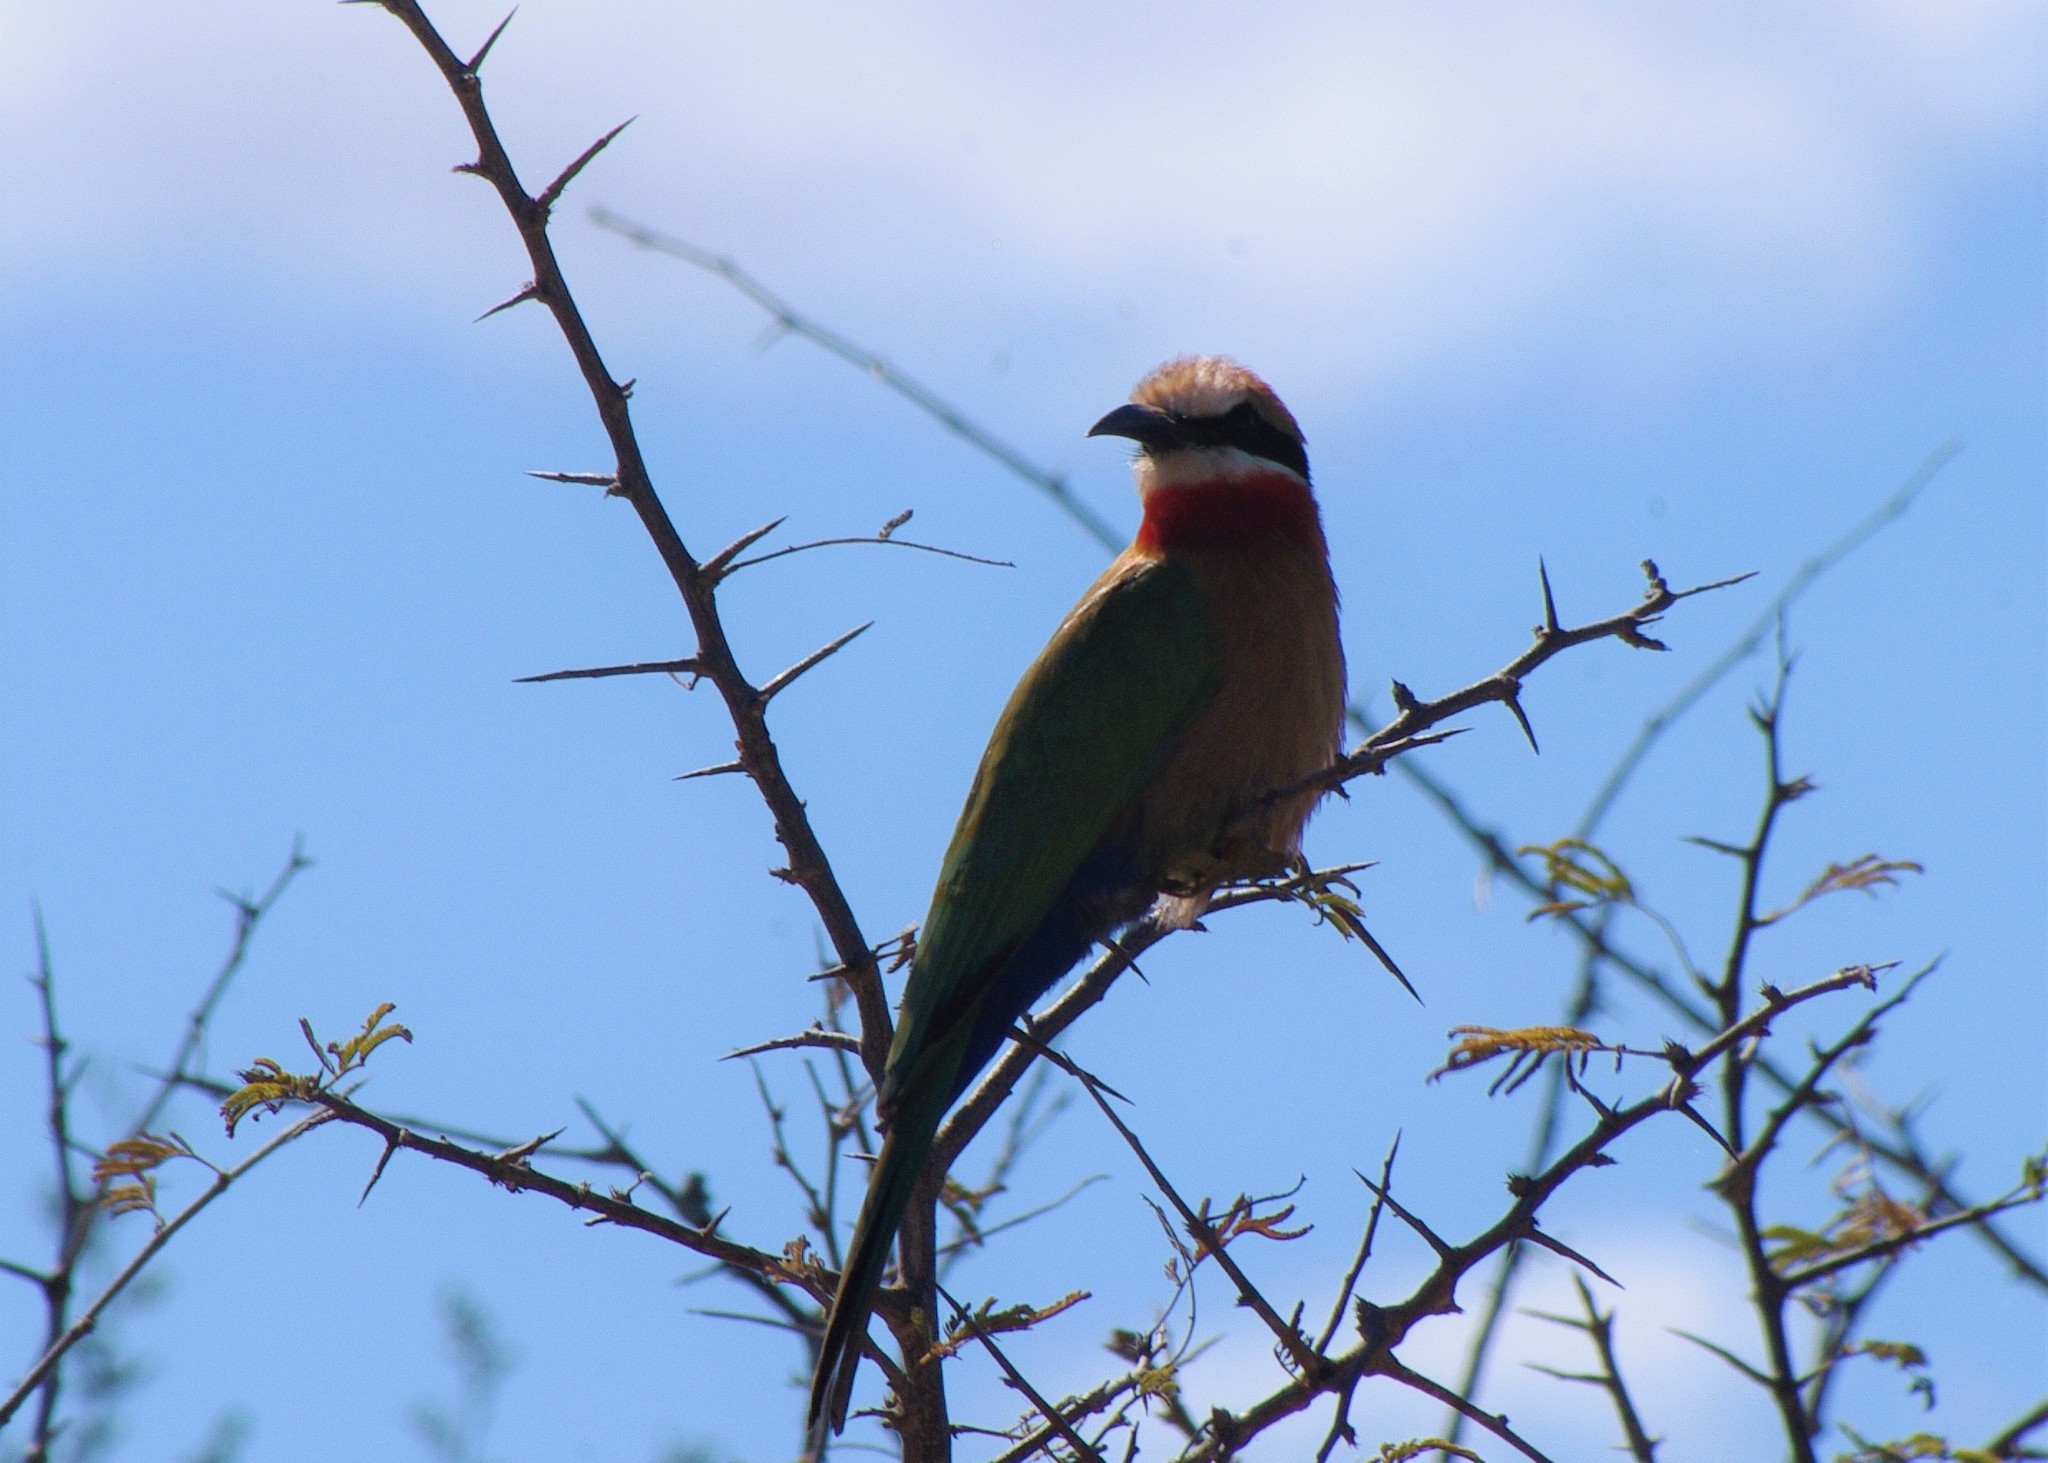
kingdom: Animalia
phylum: Chordata
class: Aves
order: Coraciiformes
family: Meropidae
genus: Merops
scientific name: Merops bullockoides
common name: White-fronted bee-eater
